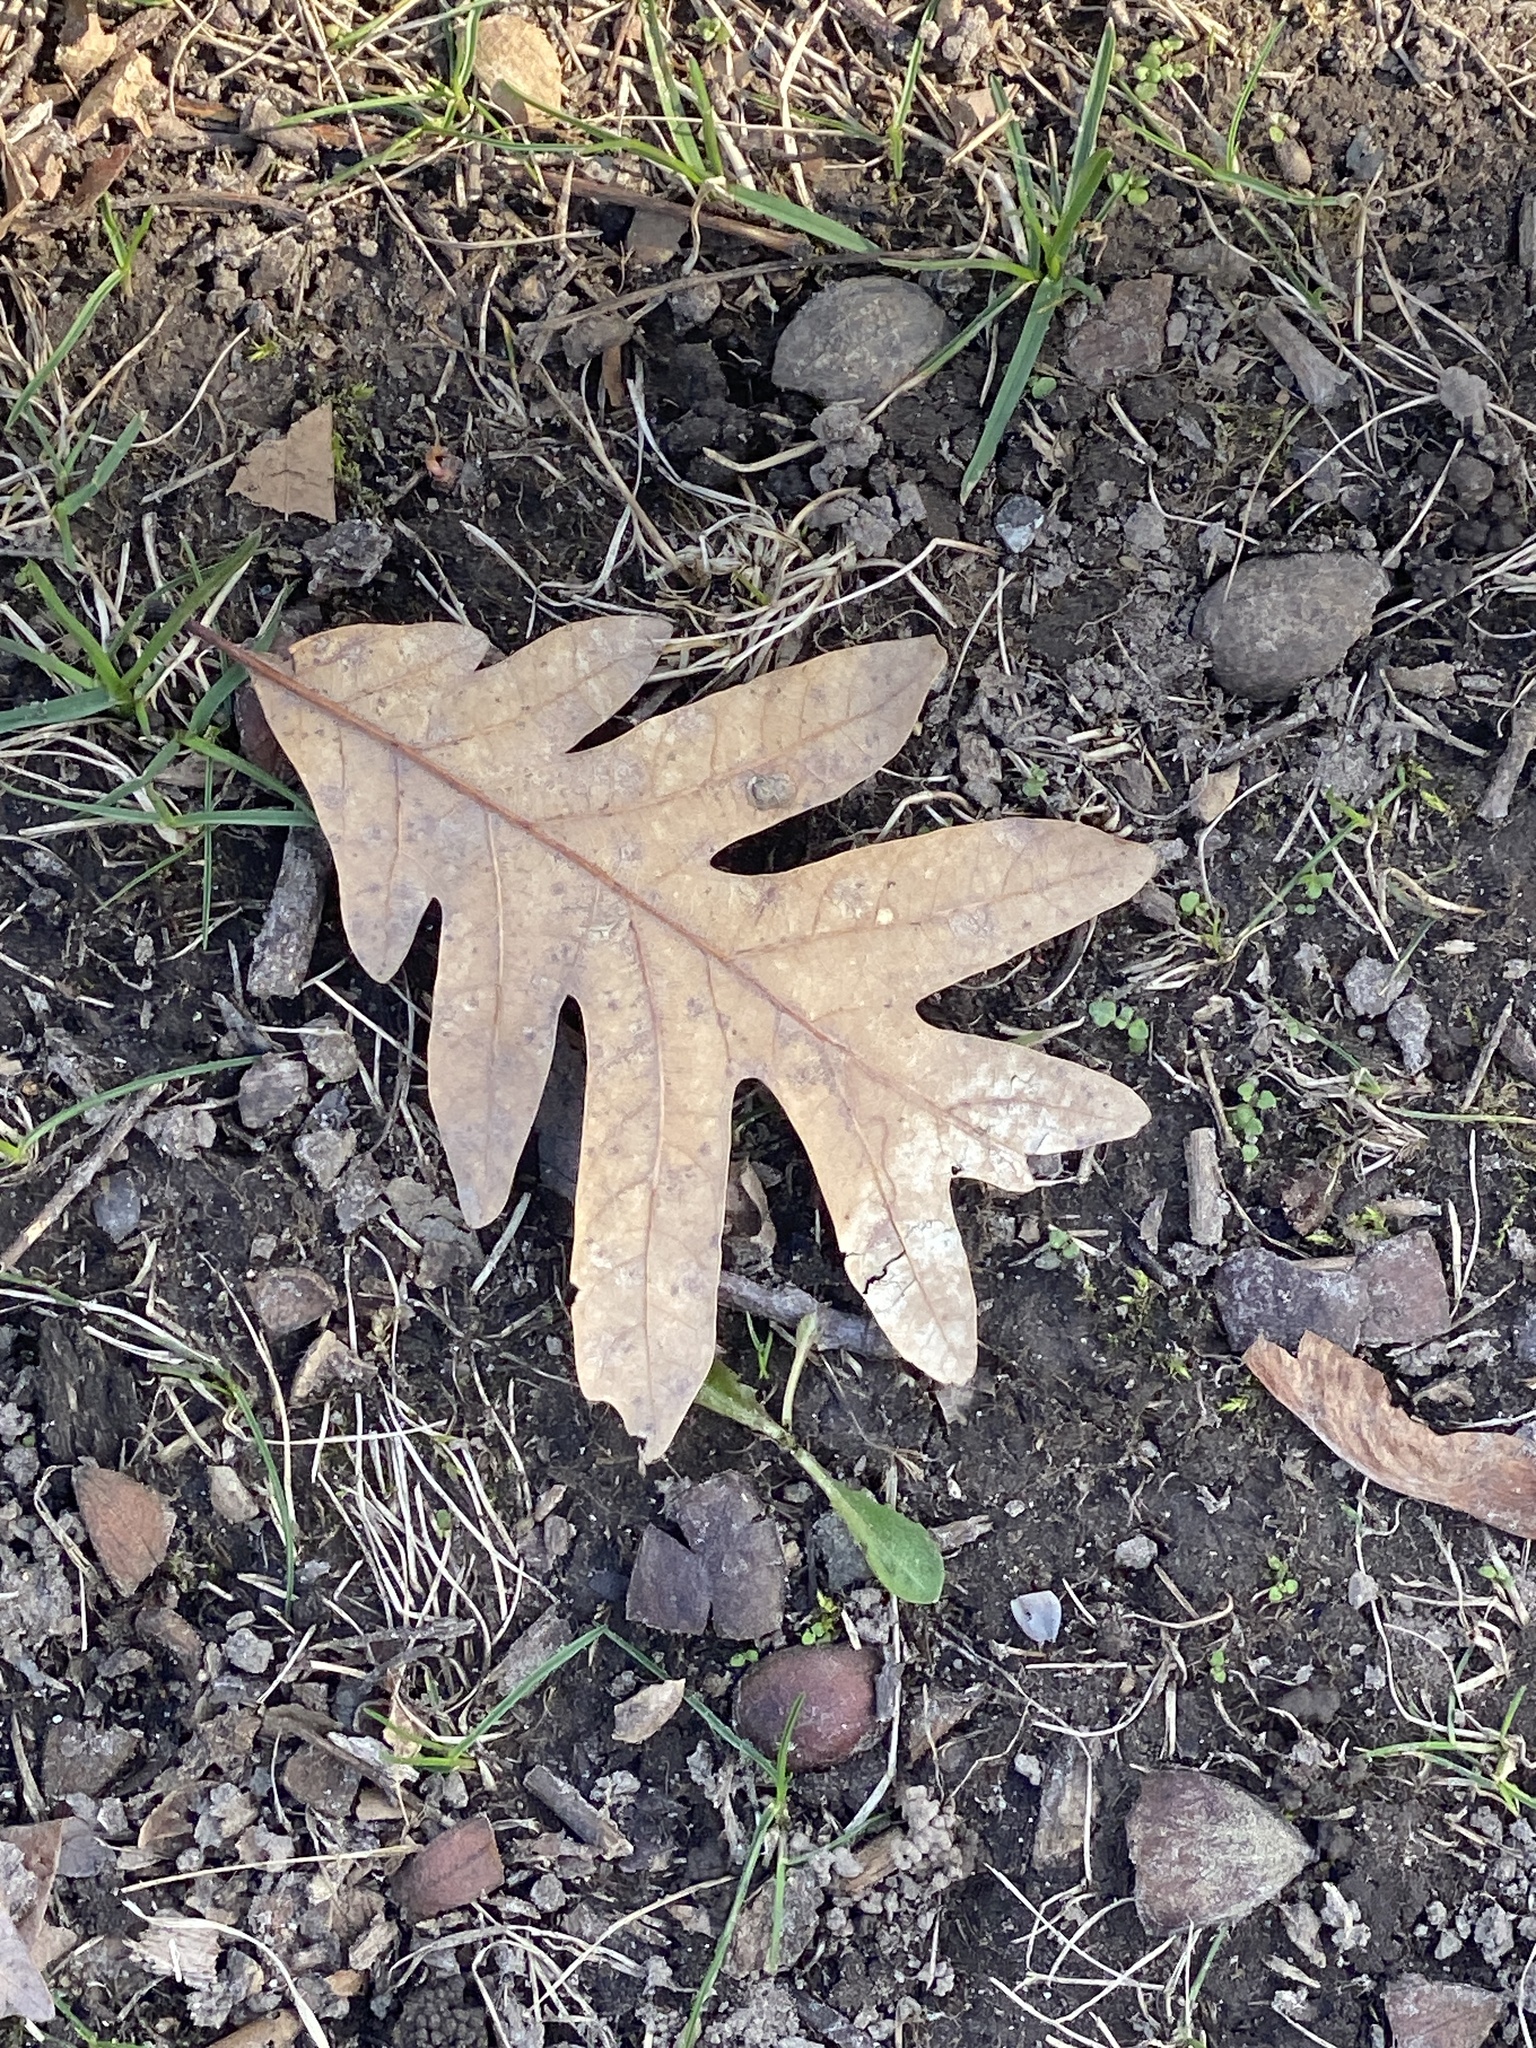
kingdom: Plantae
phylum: Tracheophyta
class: Magnoliopsida
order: Fagales
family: Fagaceae
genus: Quercus
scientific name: Quercus alba
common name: White oak
